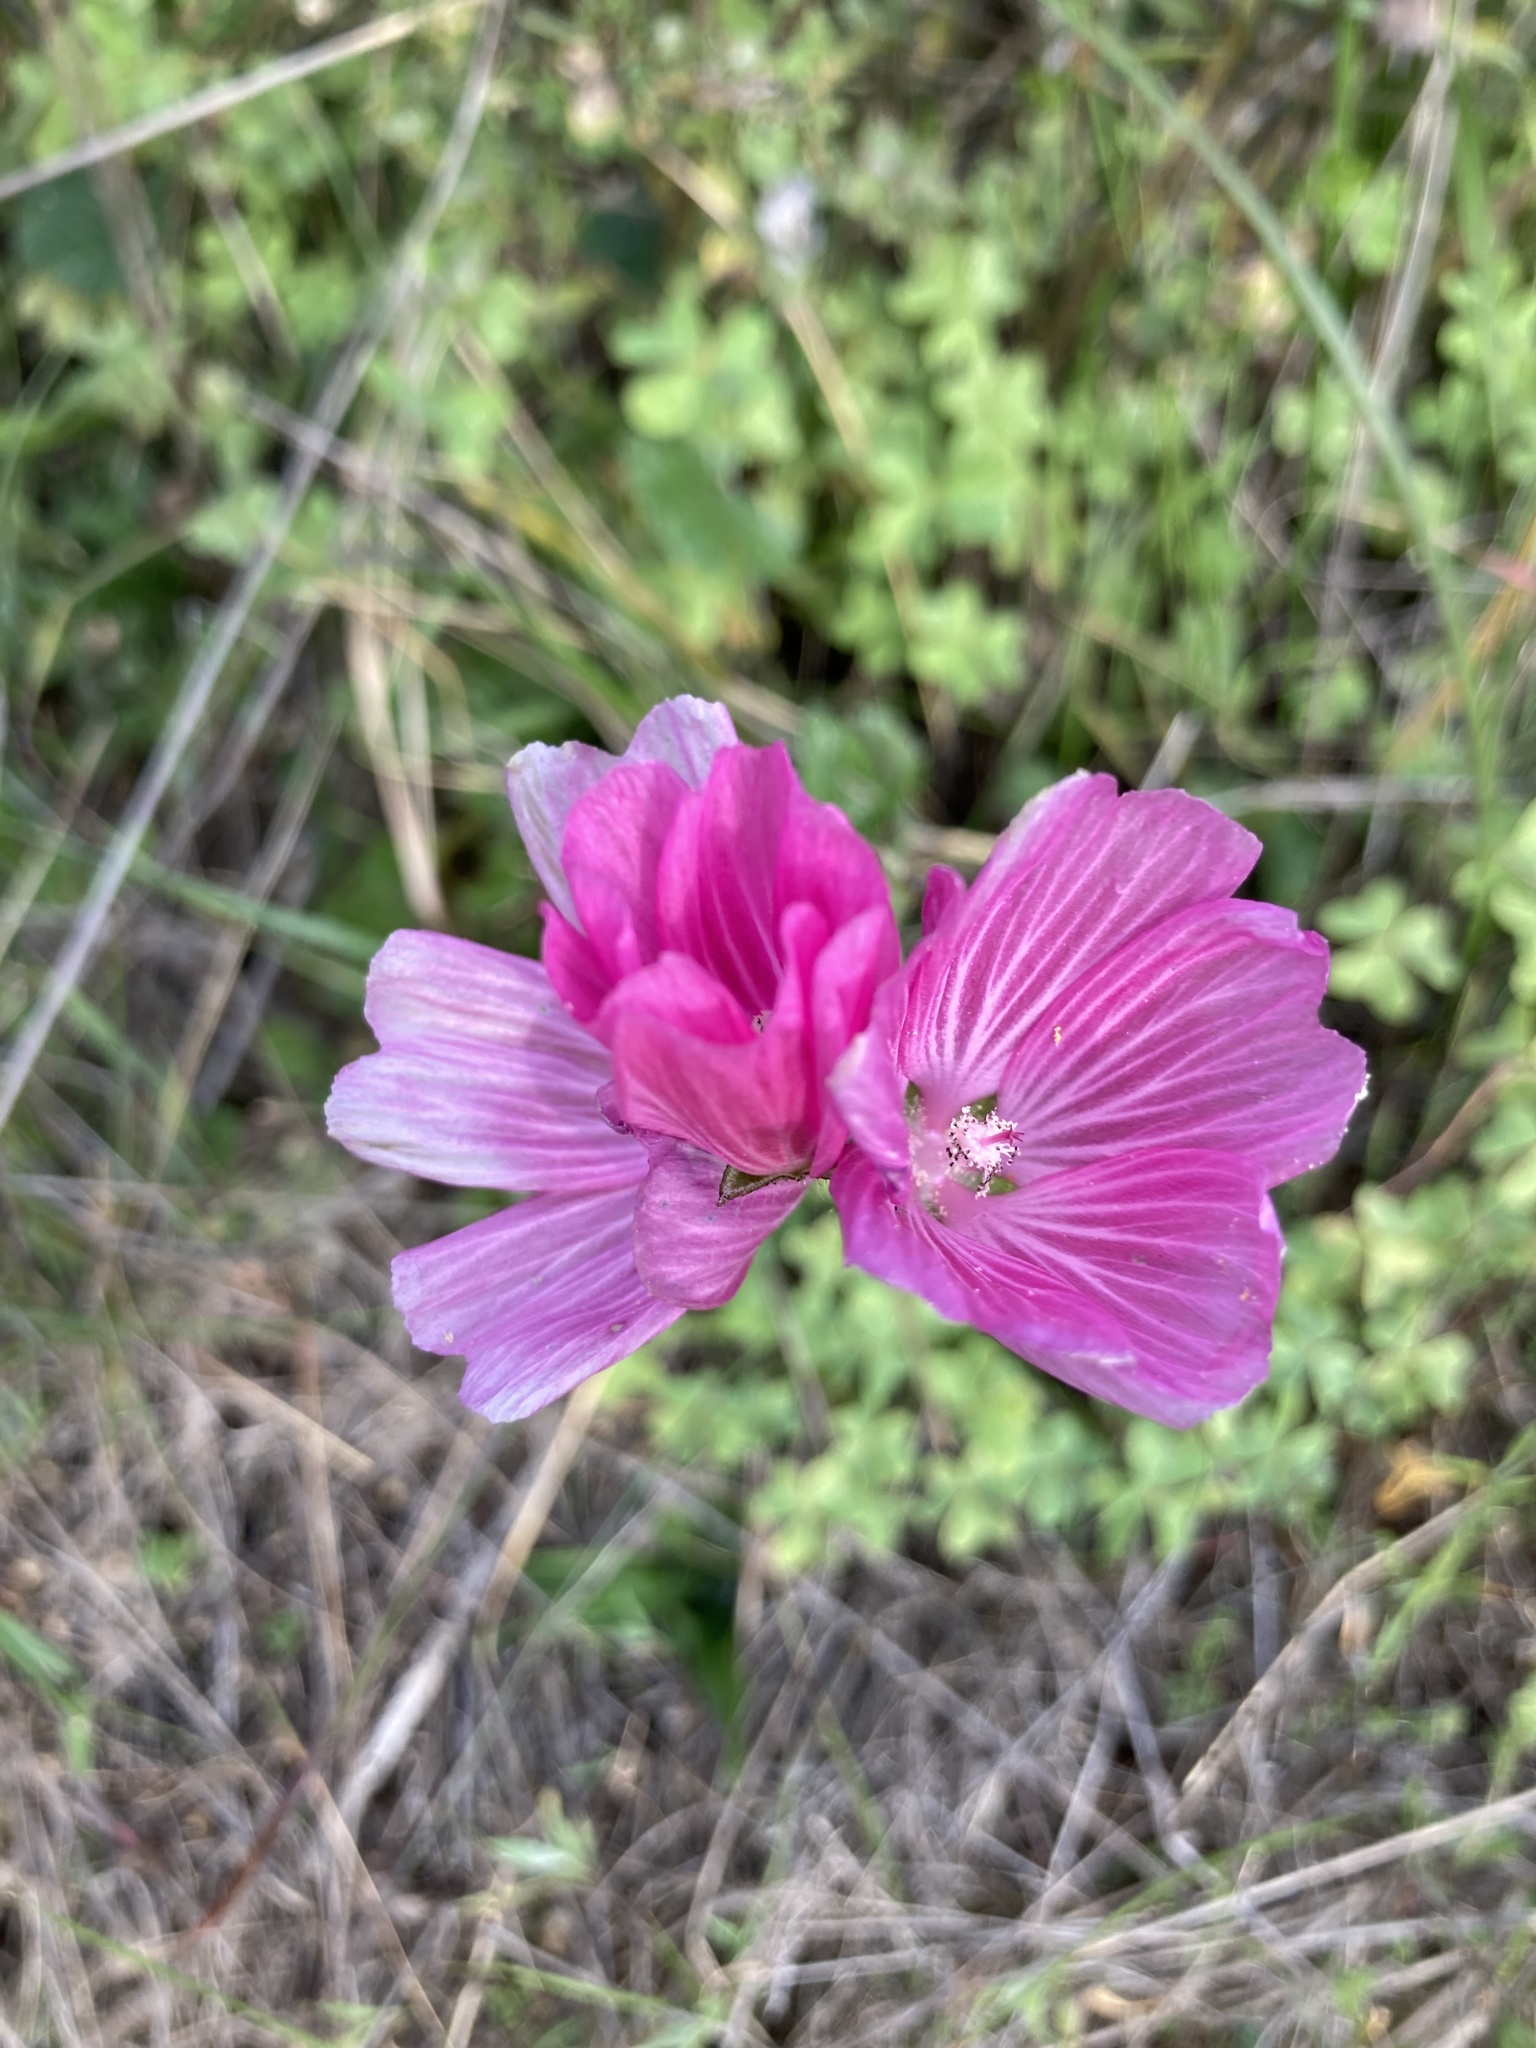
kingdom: Plantae
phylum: Tracheophyta
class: Magnoliopsida
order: Malvales
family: Malvaceae
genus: Sidalcea
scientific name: Sidalcea malviflora
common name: Greek mallow
